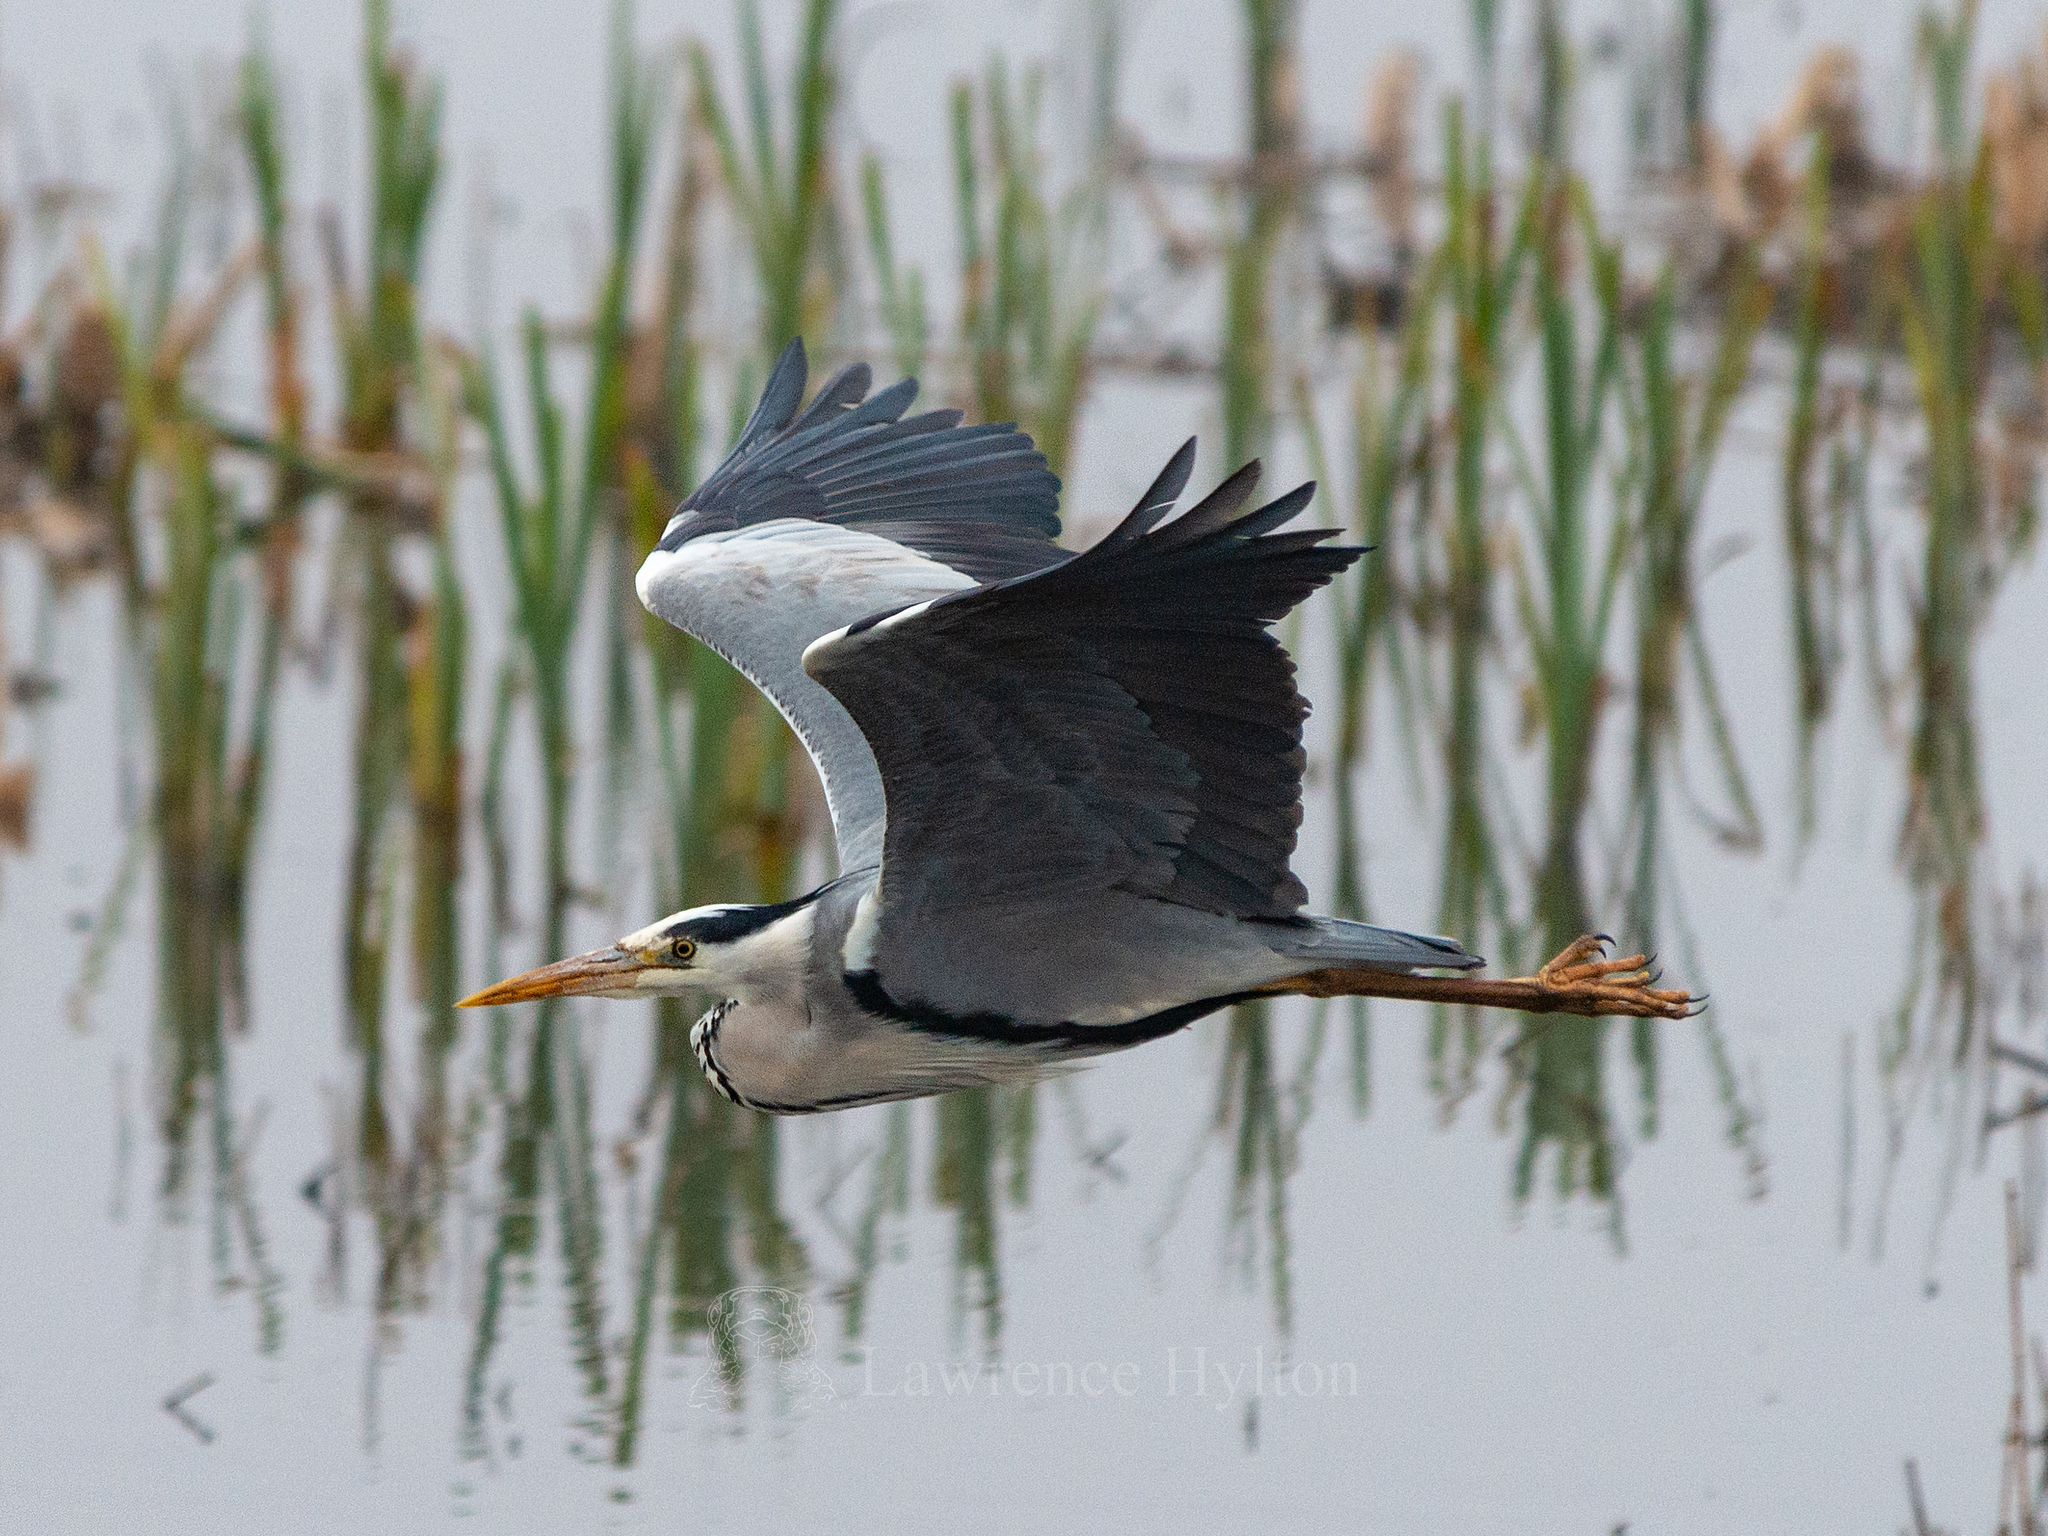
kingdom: Animalia
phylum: Chordata
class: Aves
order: Pelecaniformes
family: Ardeidae
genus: Ardea
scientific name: Ardea cinerea
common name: Grey heron
